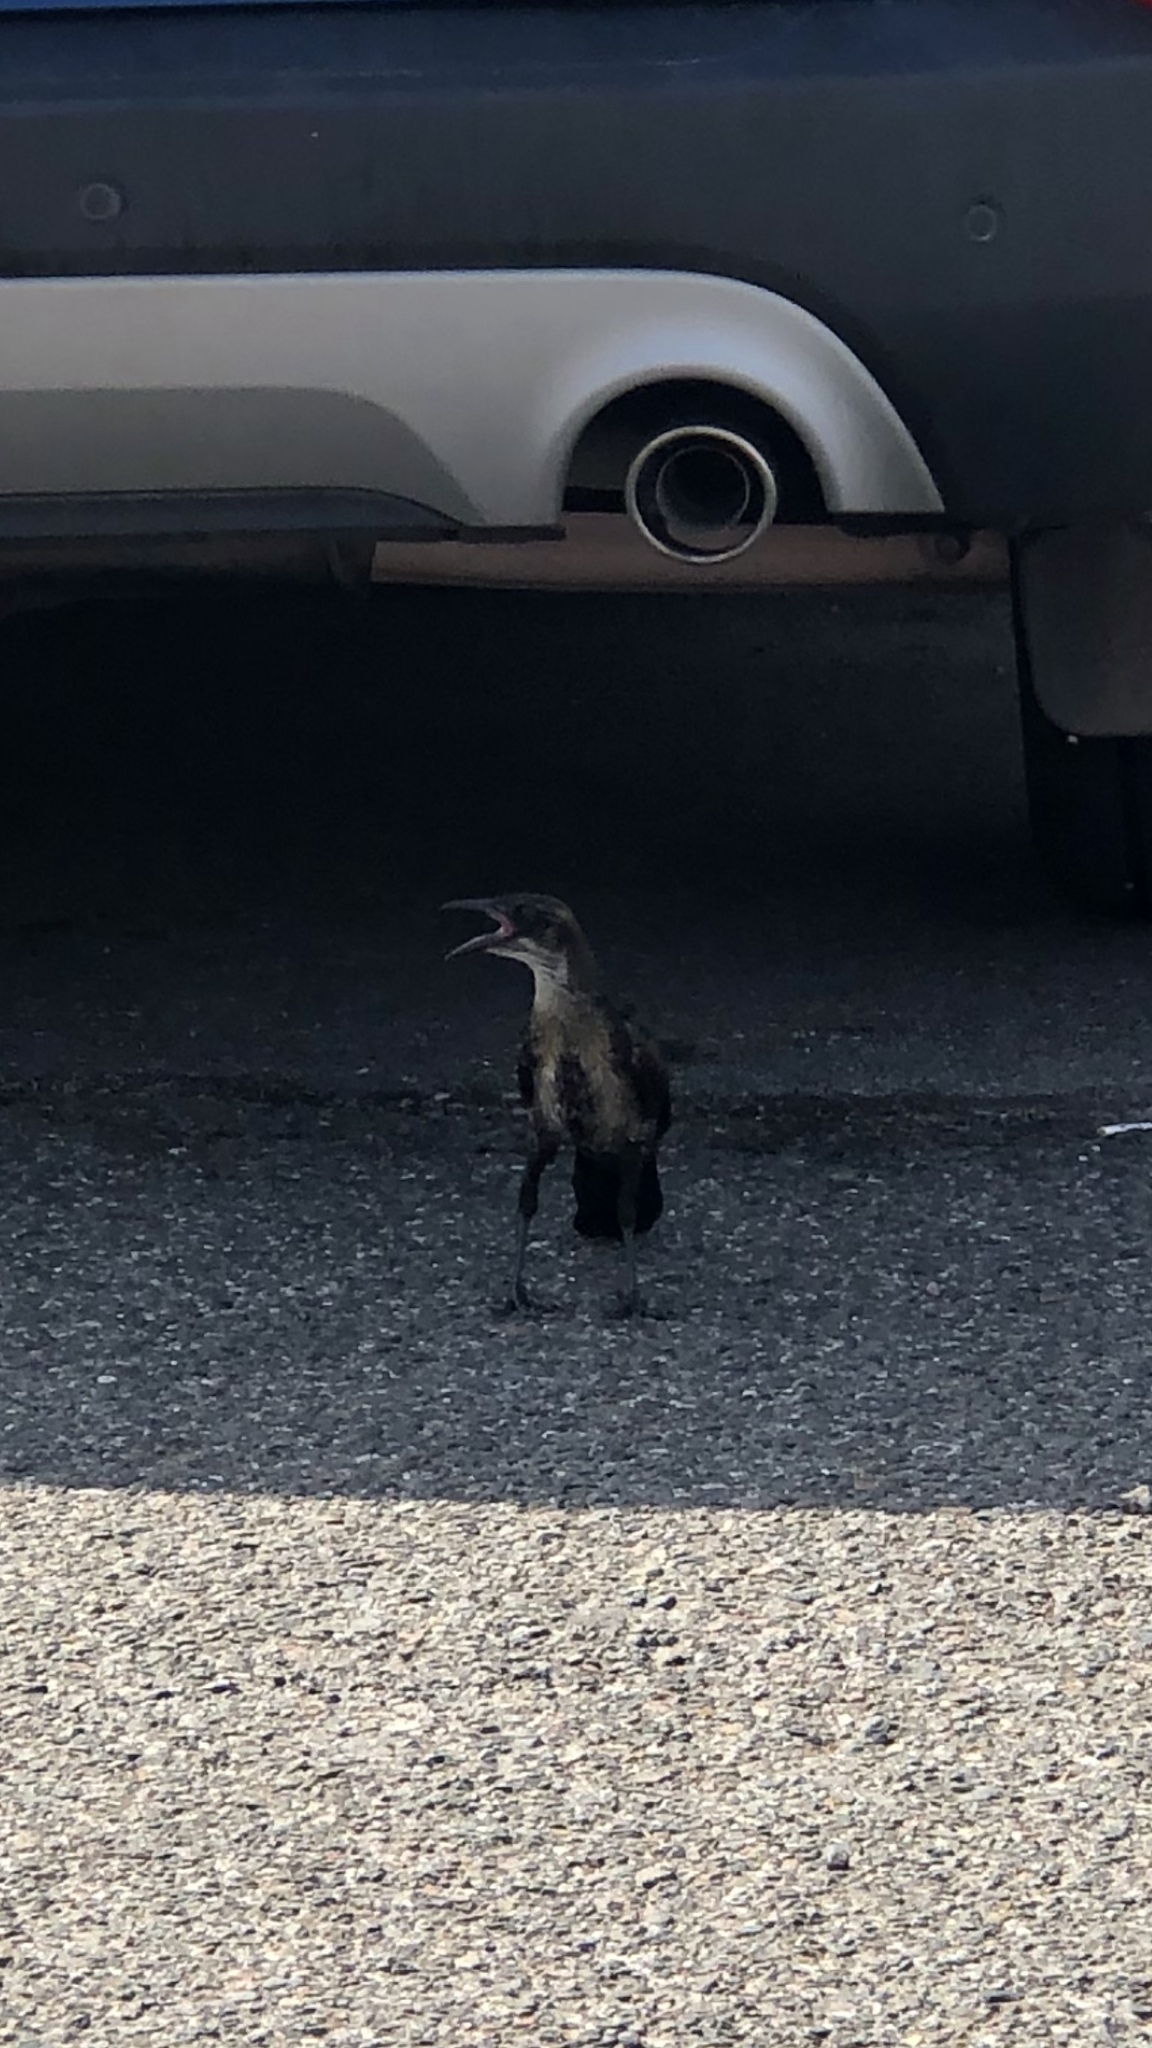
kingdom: Animalia
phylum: Chordata
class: Aves
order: Passeriformes
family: Icteridae
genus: Quiscalus
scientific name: Quiscalus mexicanus
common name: Great-tailed grackle
